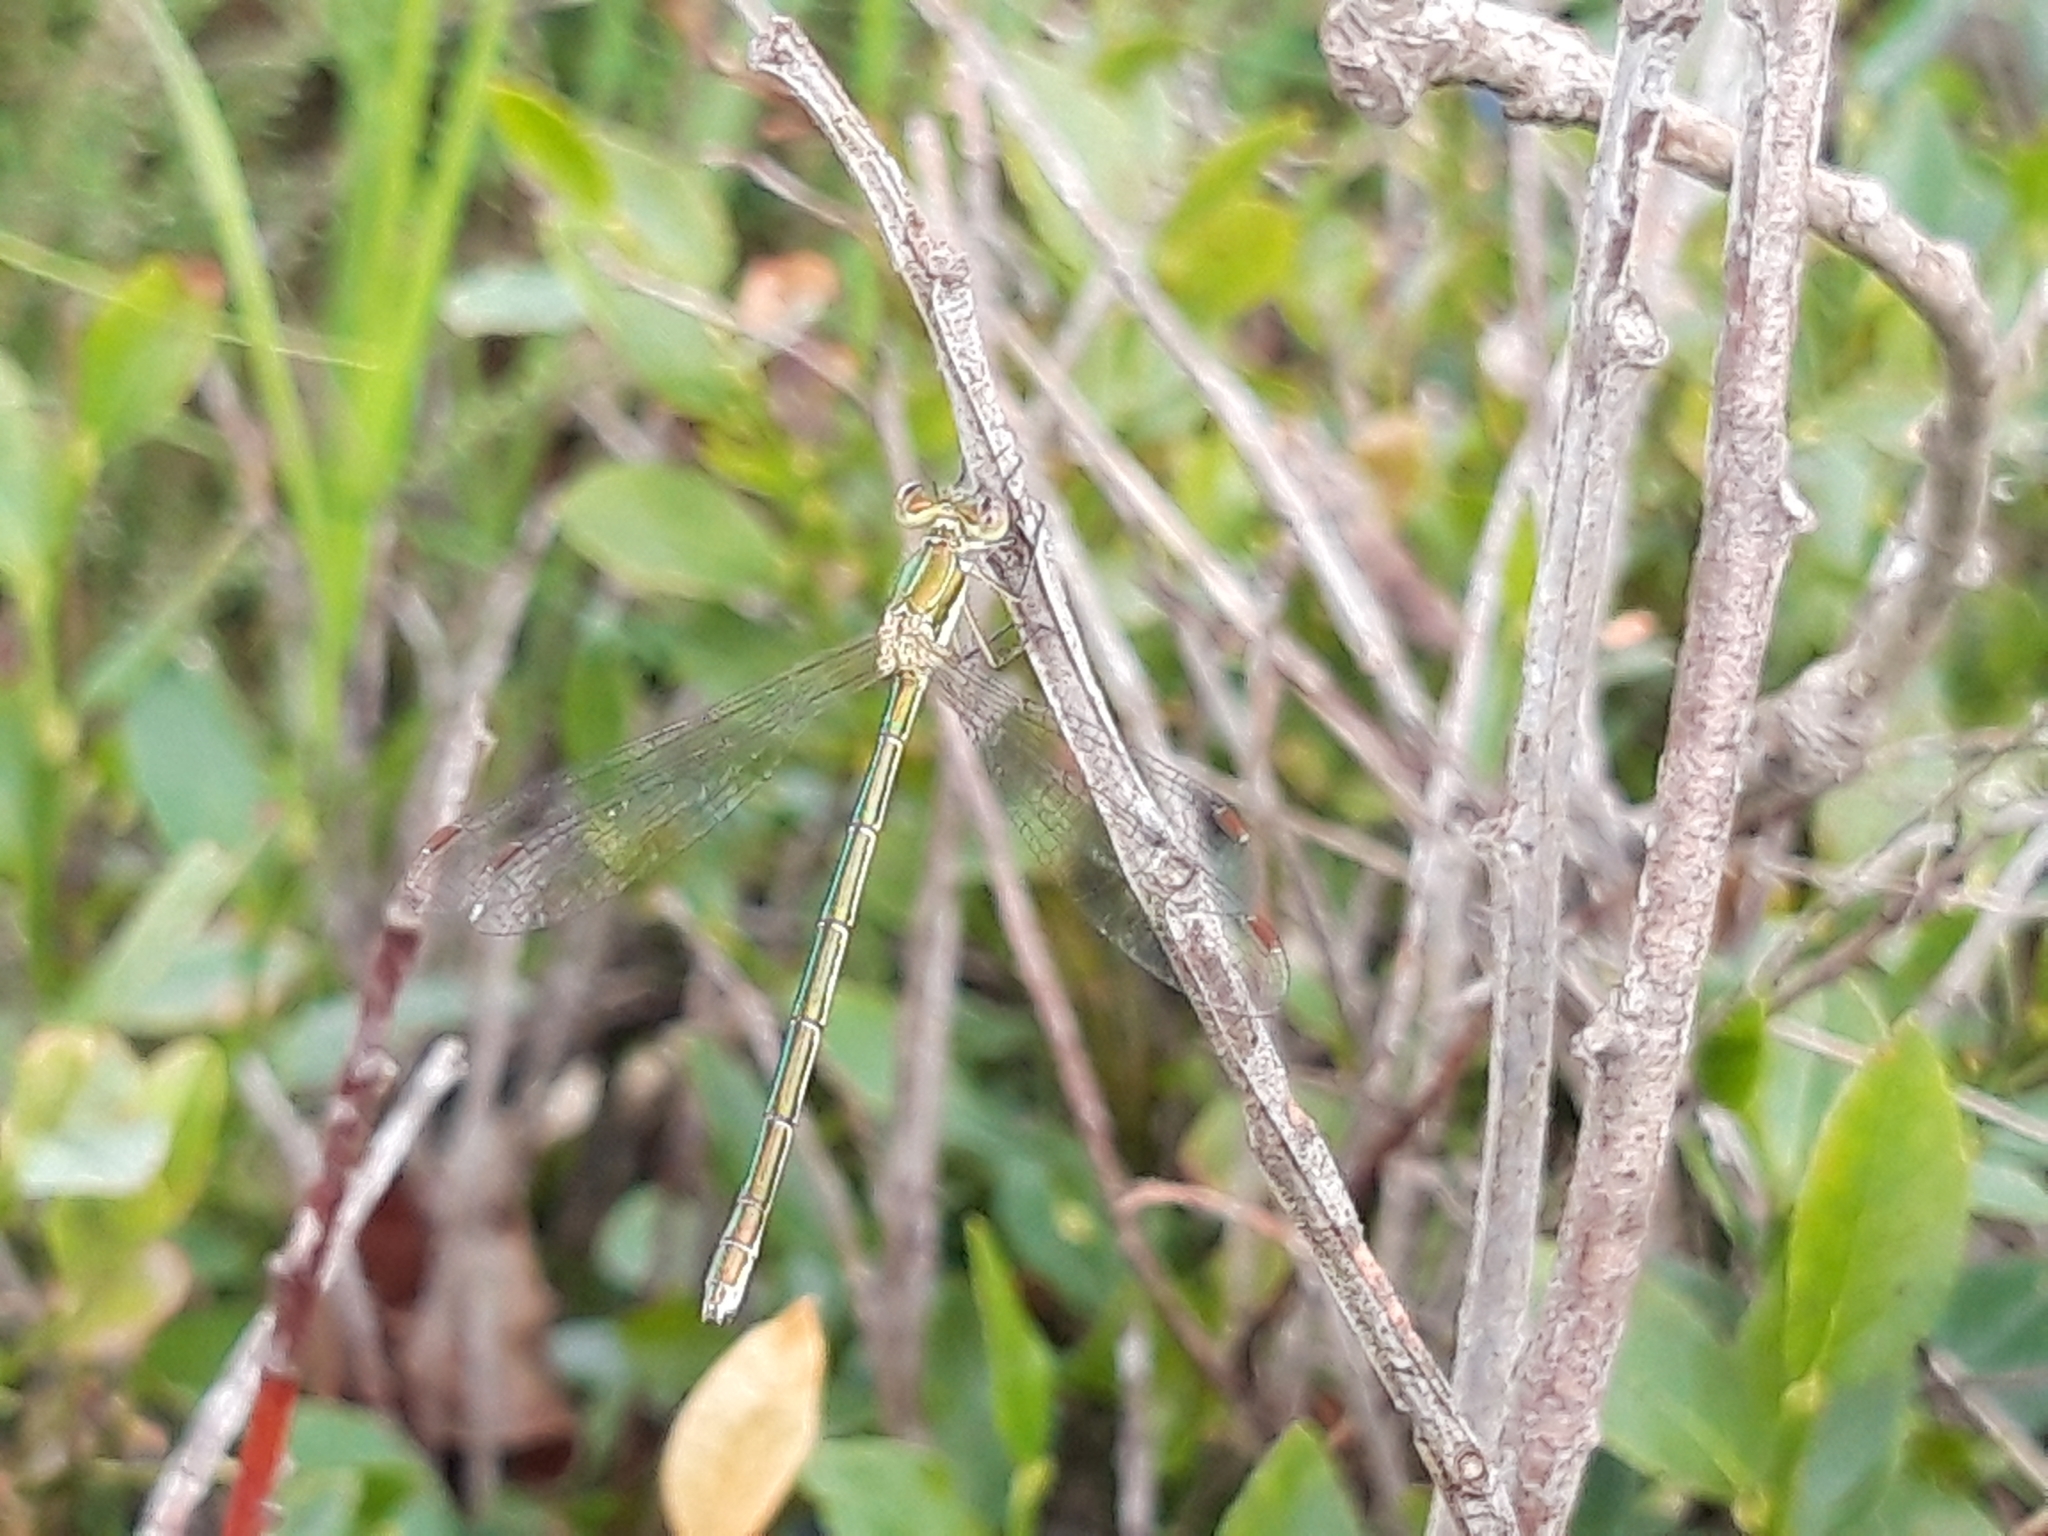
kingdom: Animalia
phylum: Arthropoda
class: Insecta
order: Odonata
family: Lestidae
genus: Lestes
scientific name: Lestes virens
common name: Small emerald spreadwing
